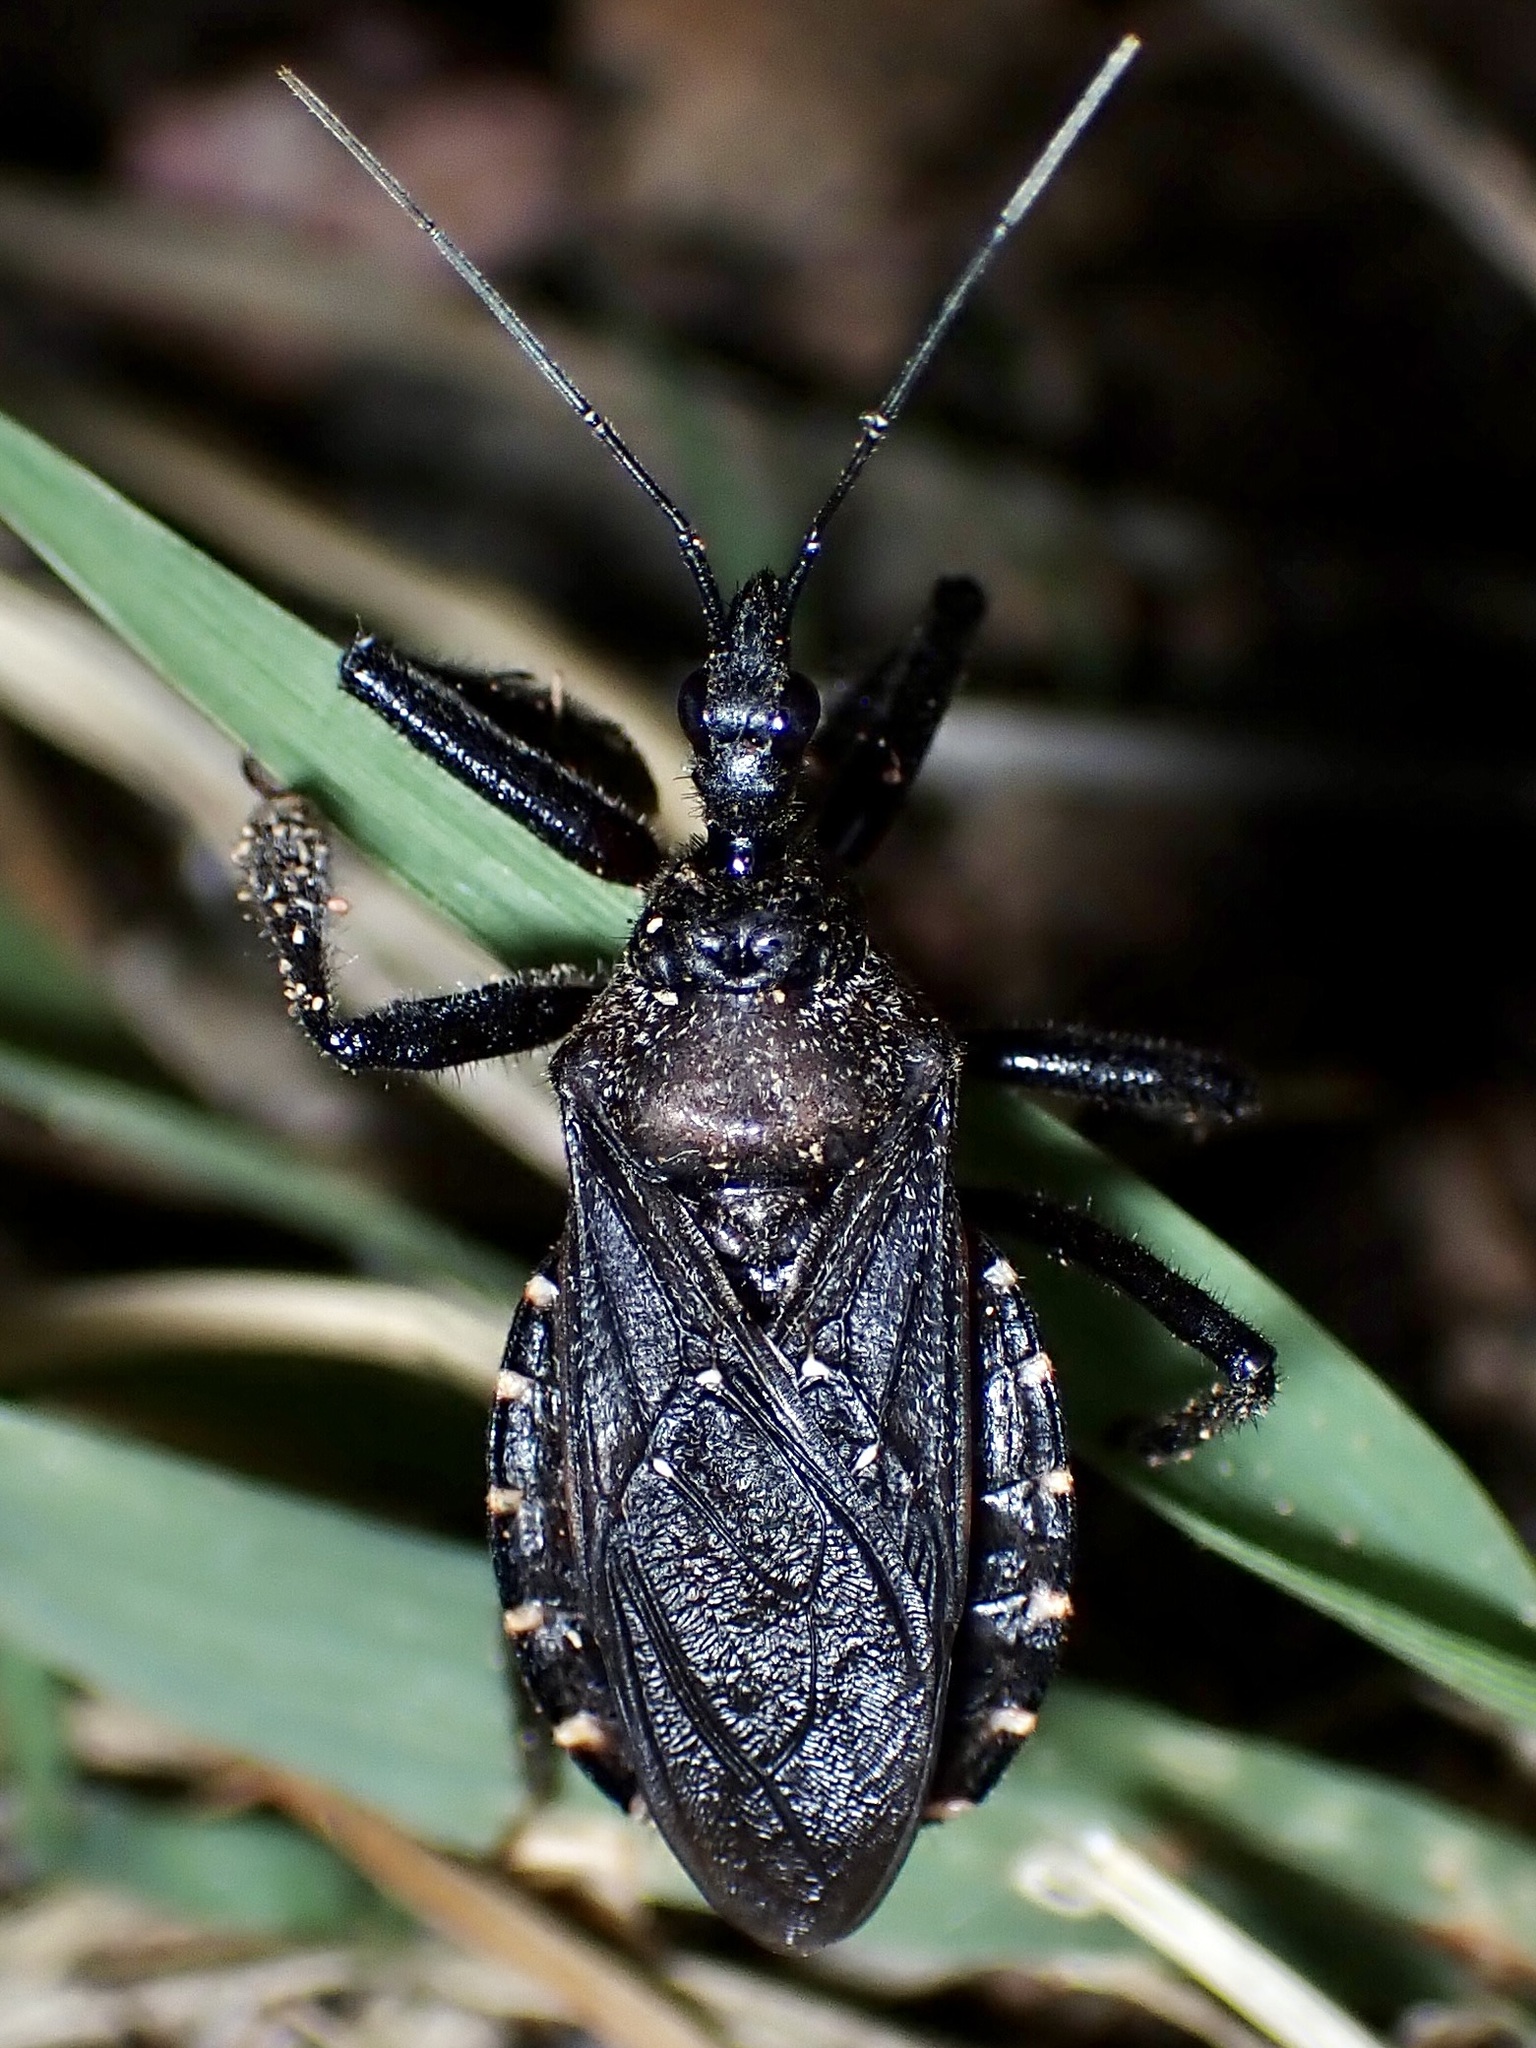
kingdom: Animalia
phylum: Arthropoda
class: Insecta
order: Hemiptera
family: Reduviidae
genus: Apiomerus
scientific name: Apiomerus longispinis
